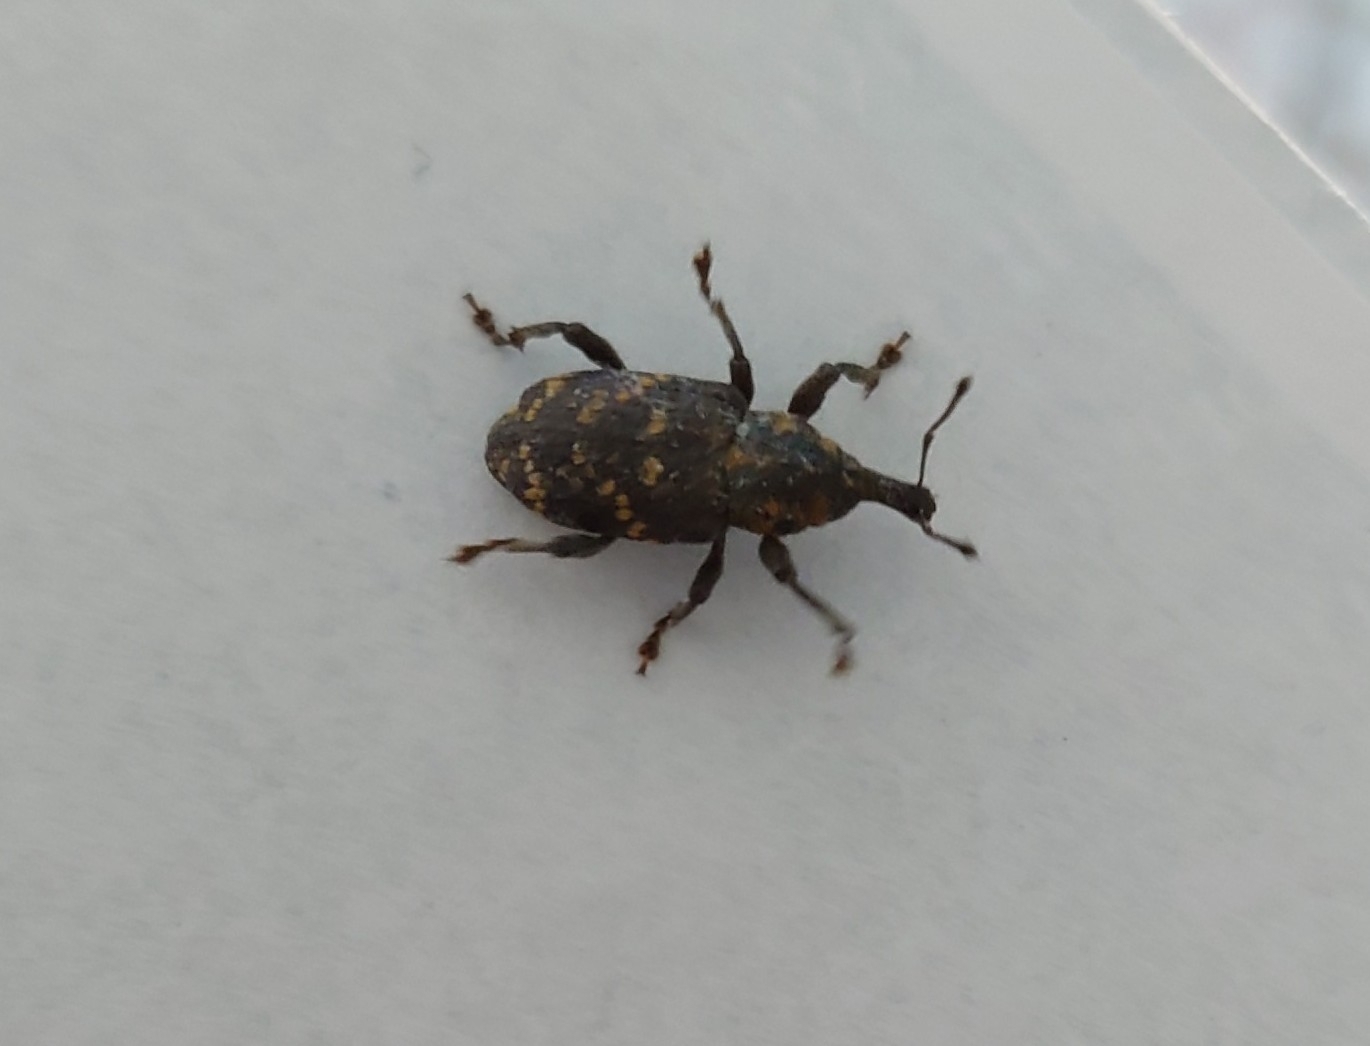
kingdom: Animalia
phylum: Arthropoda
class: Insecta
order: Coleoptera
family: Curculionidae
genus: Hylobius
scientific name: Hylobius abietis
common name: Large pine weevil
